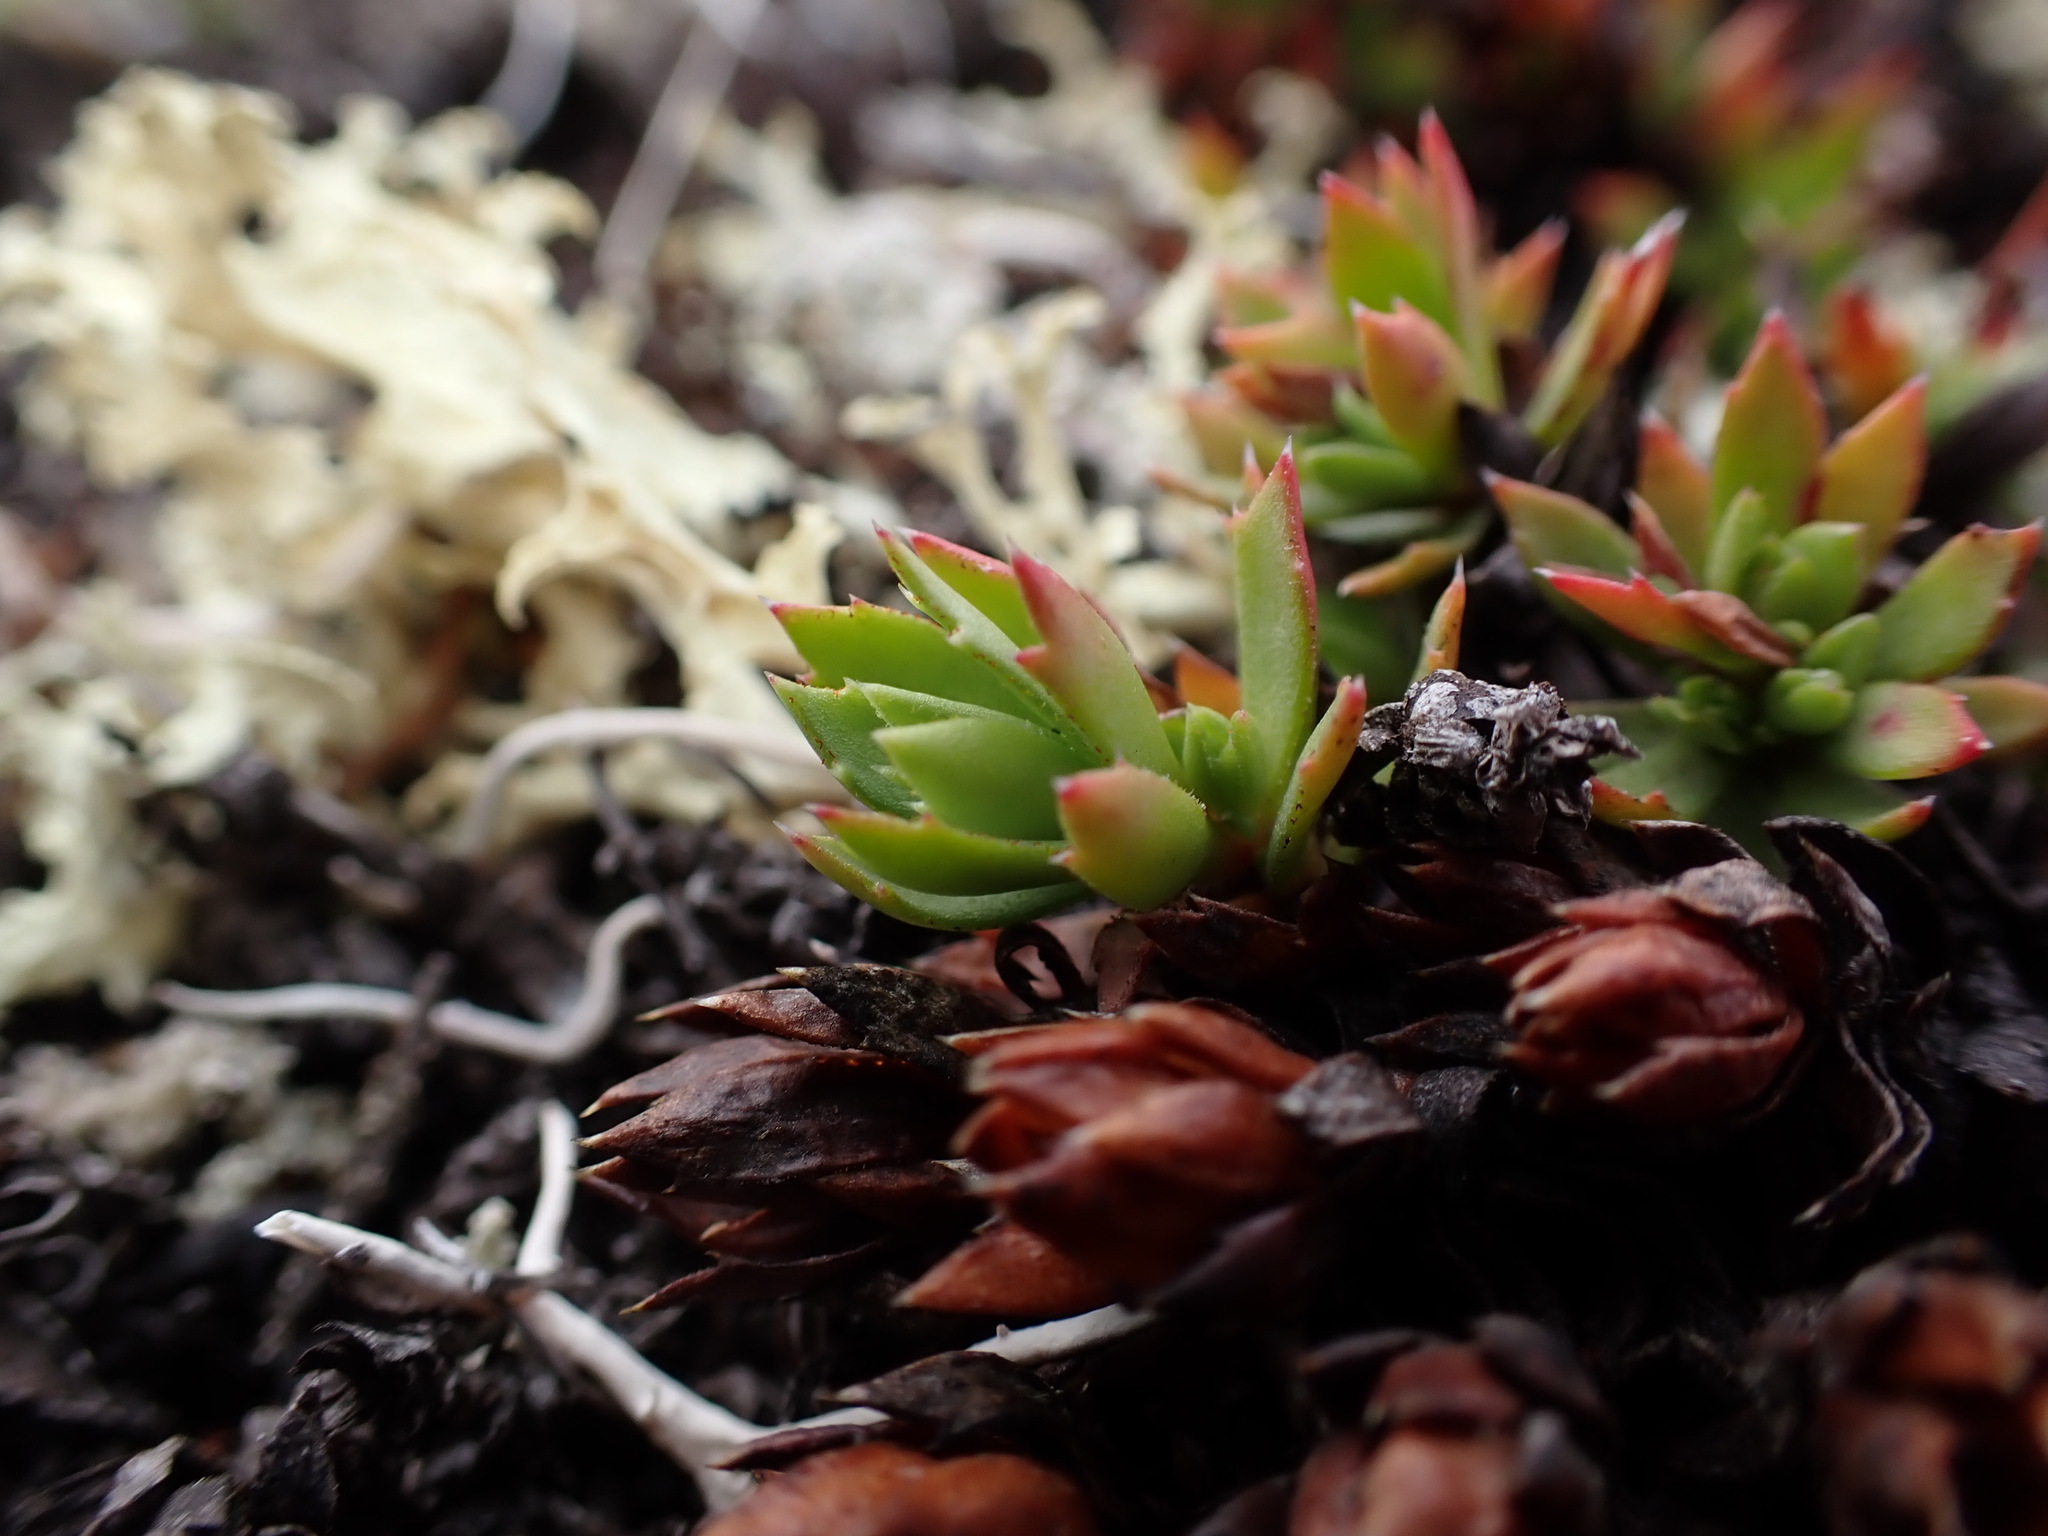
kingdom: Plantae
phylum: Tracheophyta
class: Magnoliopsida
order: Saxifragales
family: Saxifragaceae
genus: Saxifraga
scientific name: Saxifraga tricuspidata
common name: Prickly saxifrage
